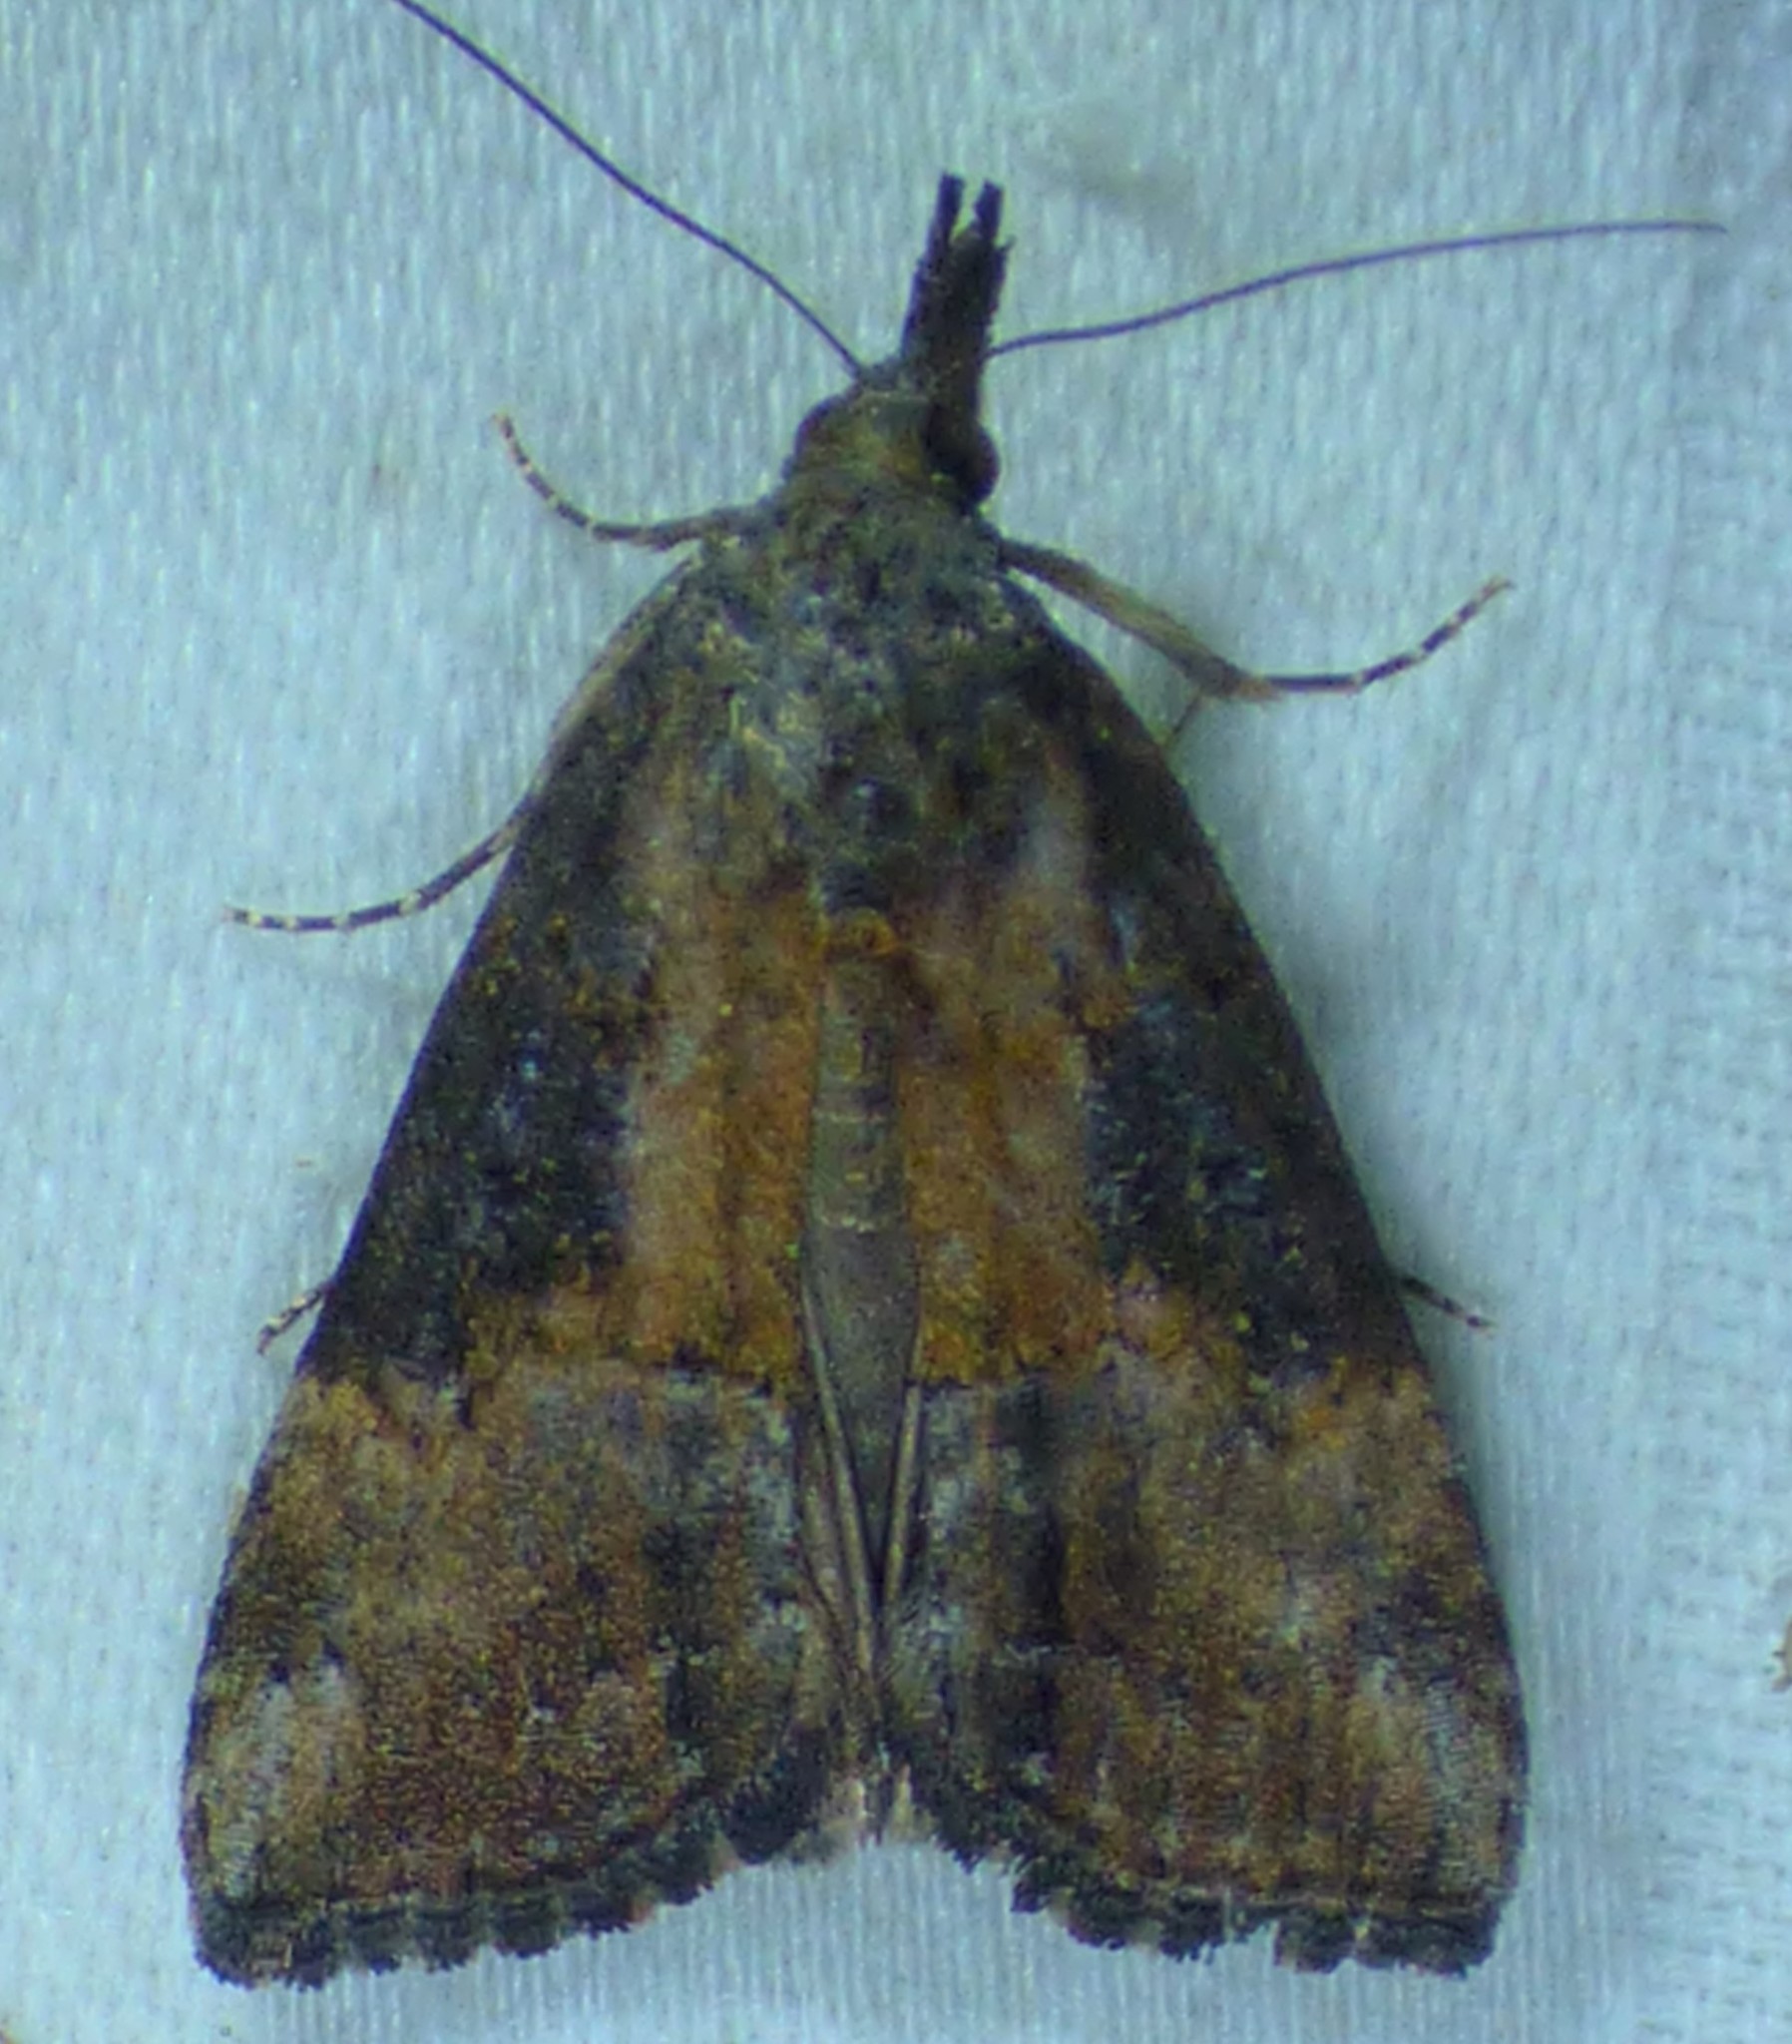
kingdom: Animalia
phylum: Arthropoda
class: Insecta
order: Lepidoptera
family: Erebidae
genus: Hypena
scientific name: Hypena scabra
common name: Green cloverworm
